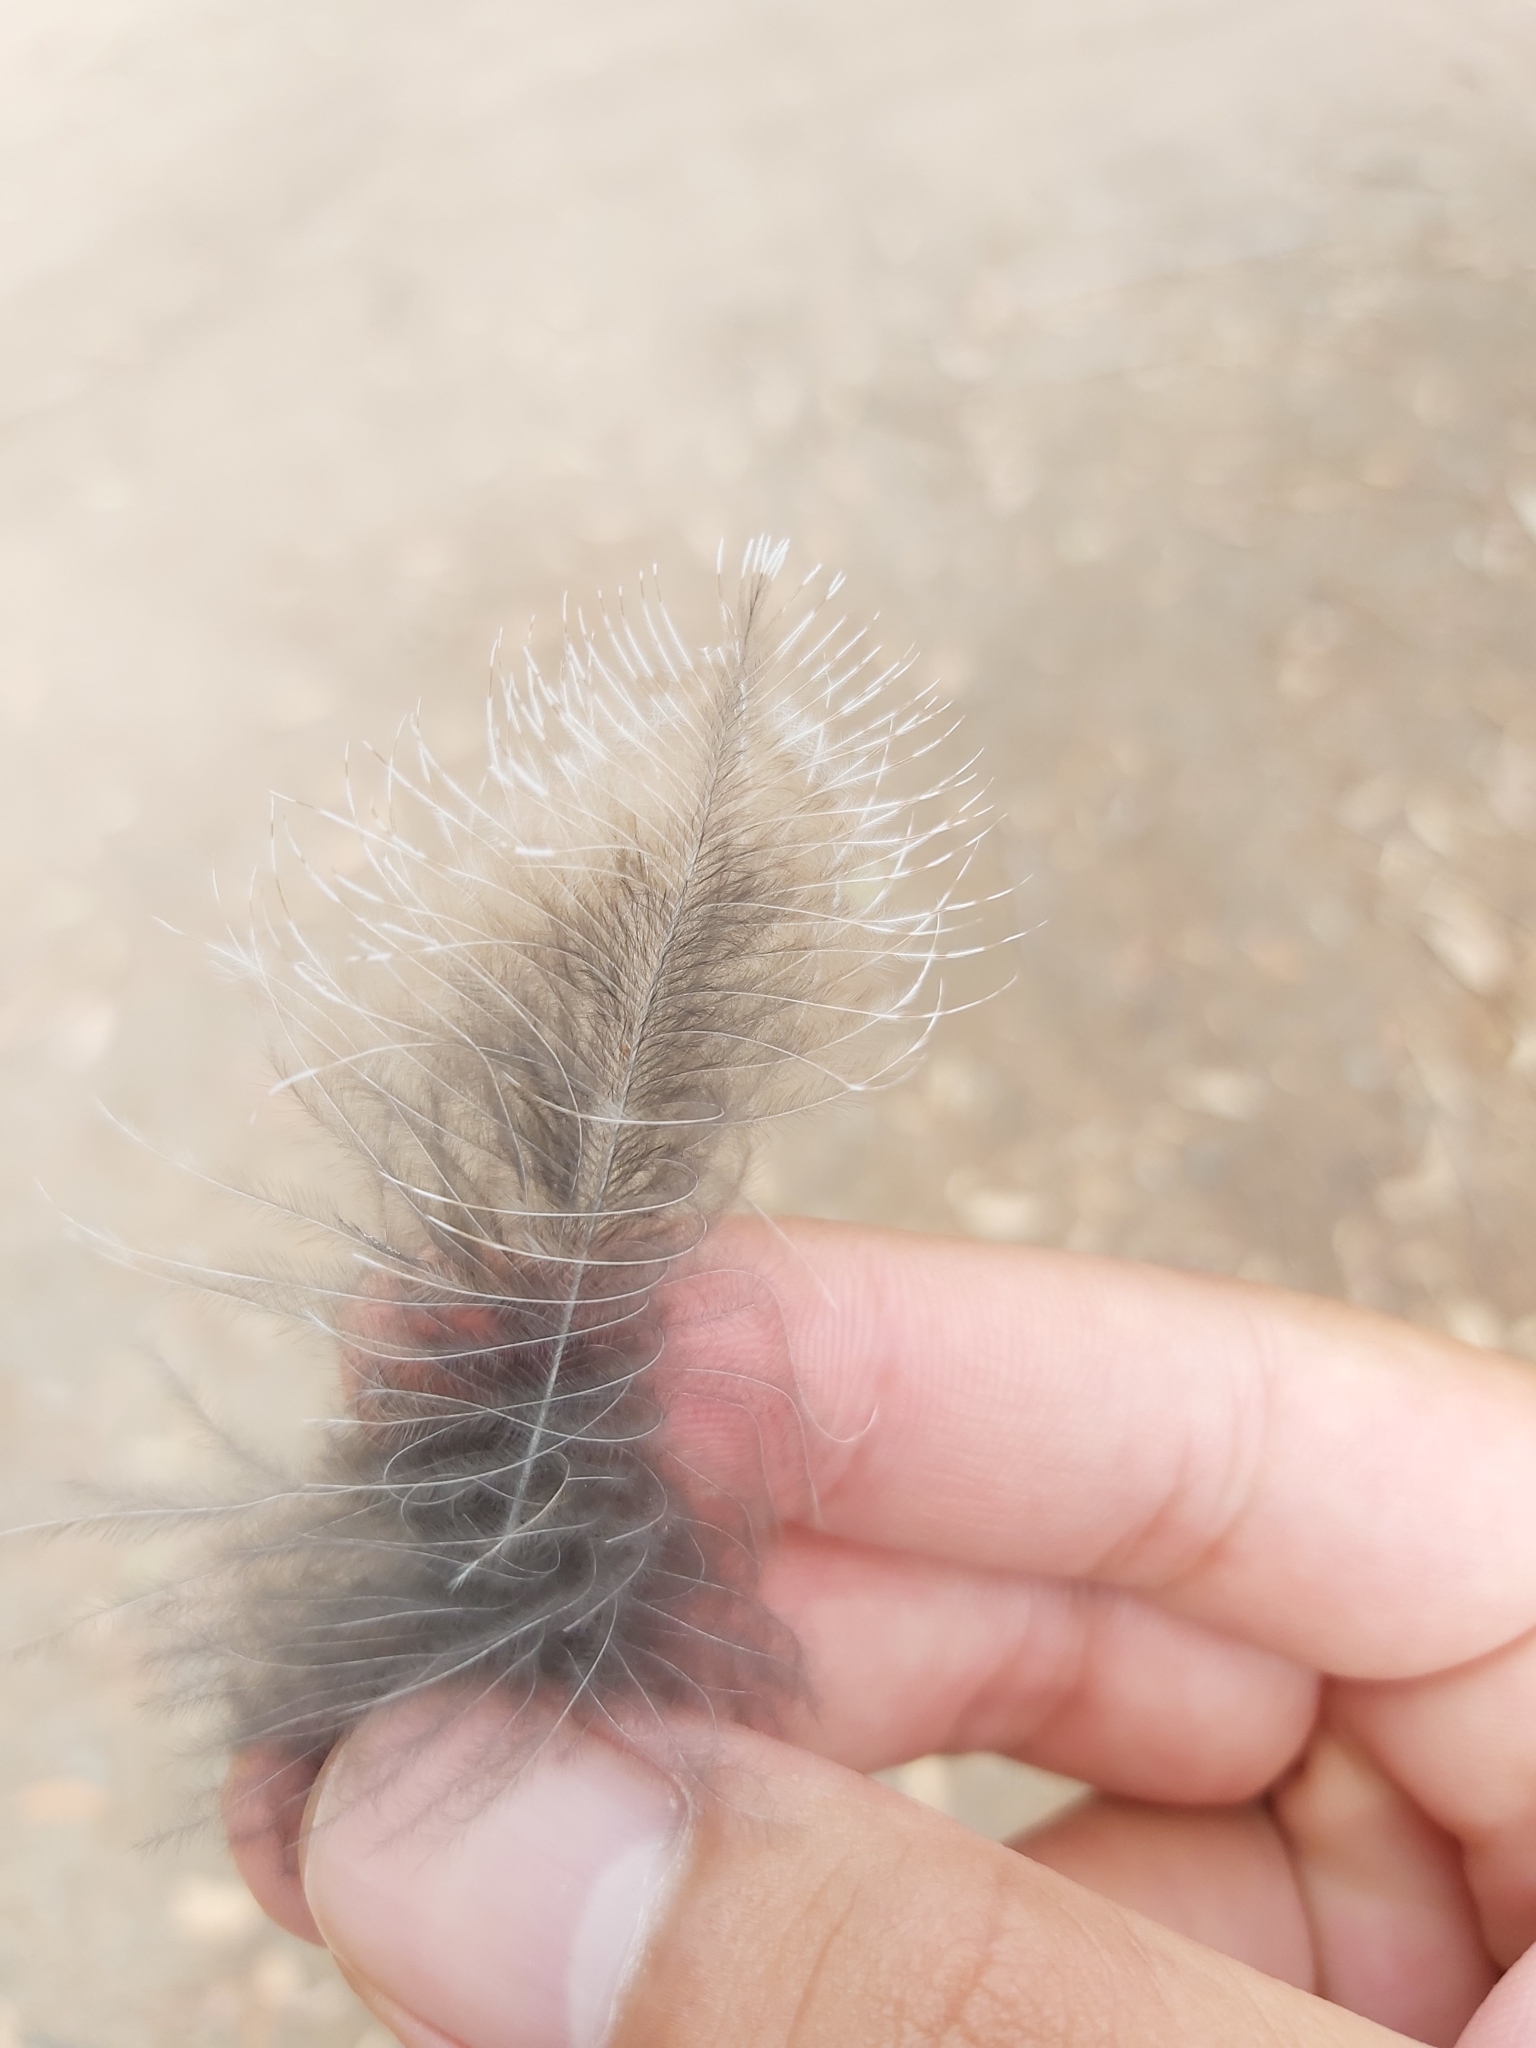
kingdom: Animalia
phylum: Chordata
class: Aves
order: Caprimulgiformes
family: Podargidae
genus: Podargus
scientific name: Podargus strigoides
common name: Tawny frogmouth
